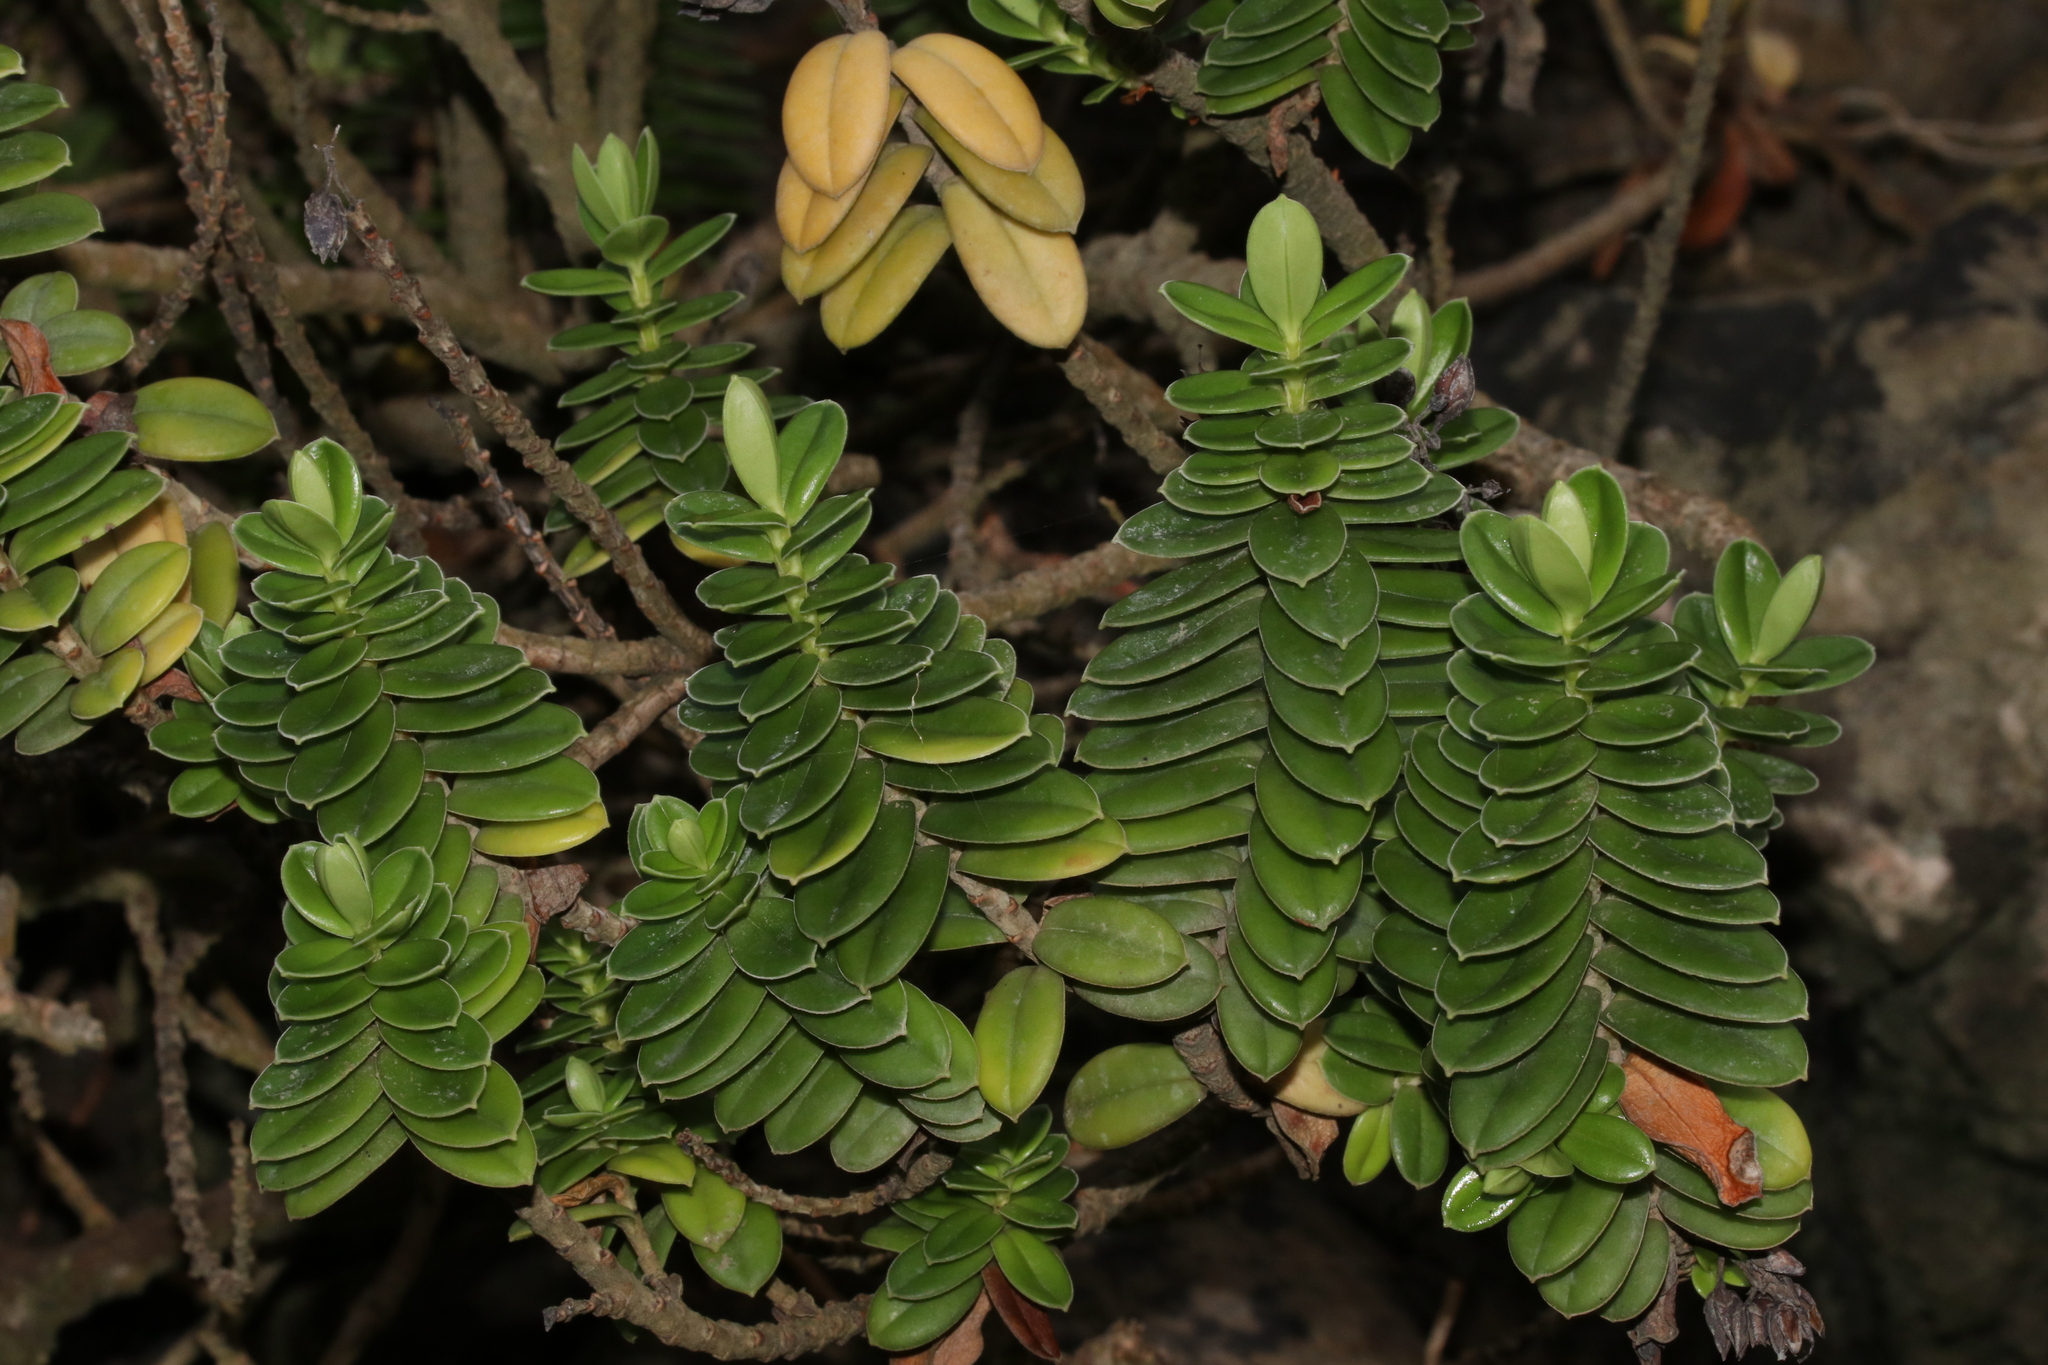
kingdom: Plantae
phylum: Tracheophyta
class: Magnoliopsida
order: Lamiales
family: Plantaginaceae
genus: Veronica
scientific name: Veronica elliptica
